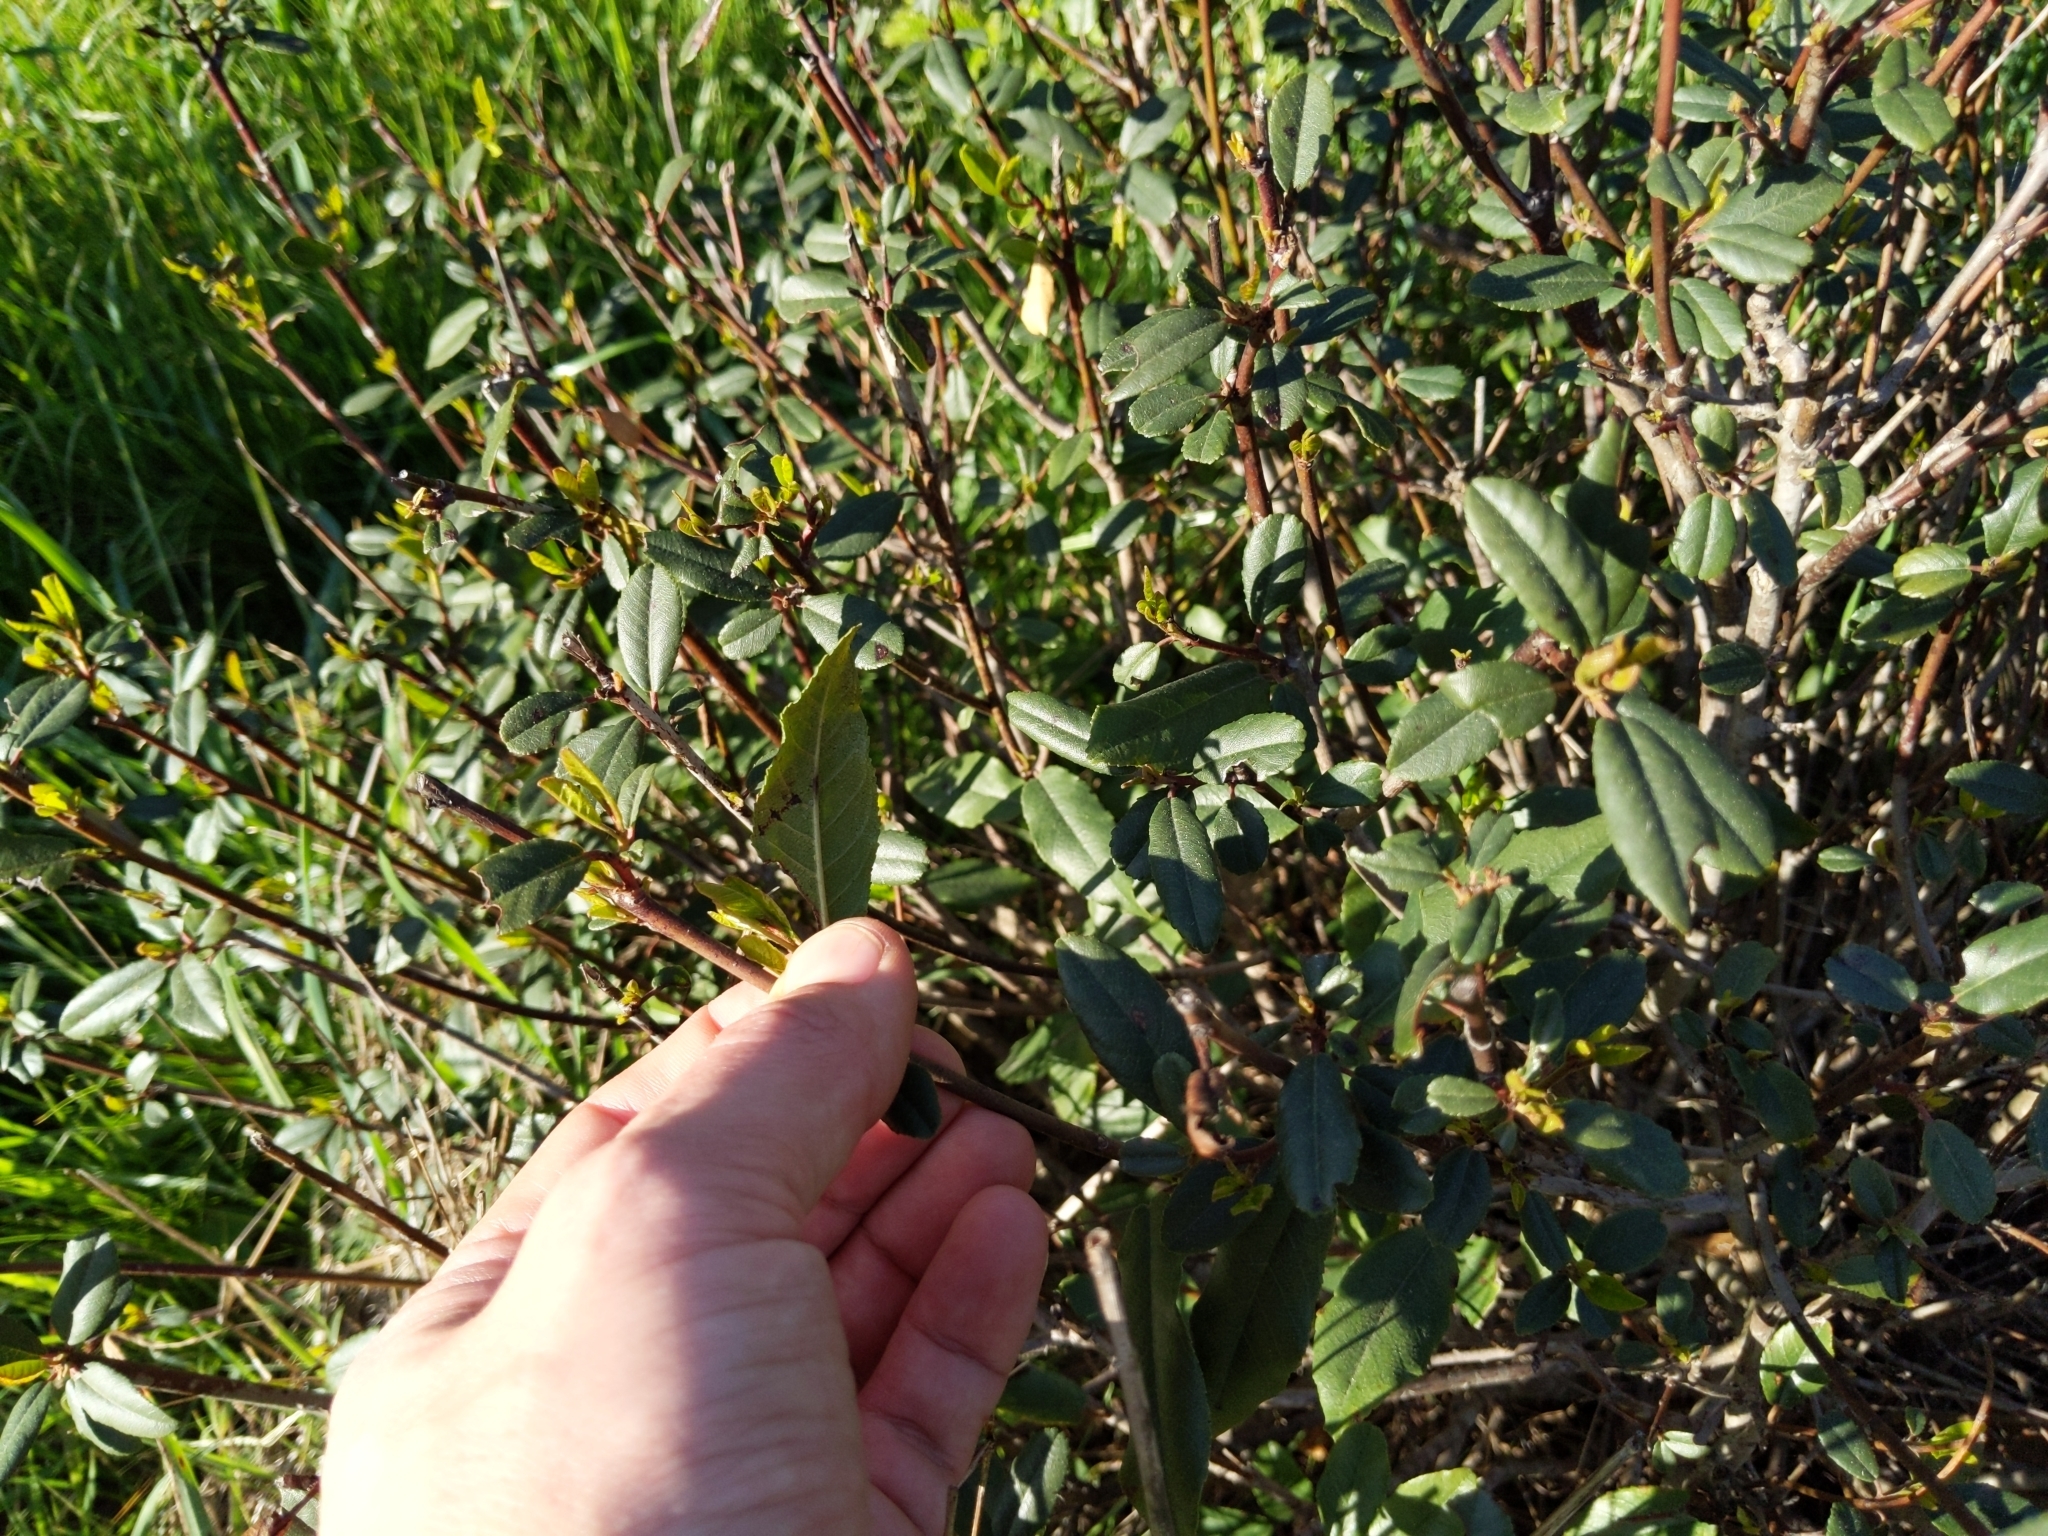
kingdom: Plantae
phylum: Tracheophyta
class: Magnoliopsida
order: Rosales
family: Rhamnaceae
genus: Frangula
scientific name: Frangula californica
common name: California buckthorn
